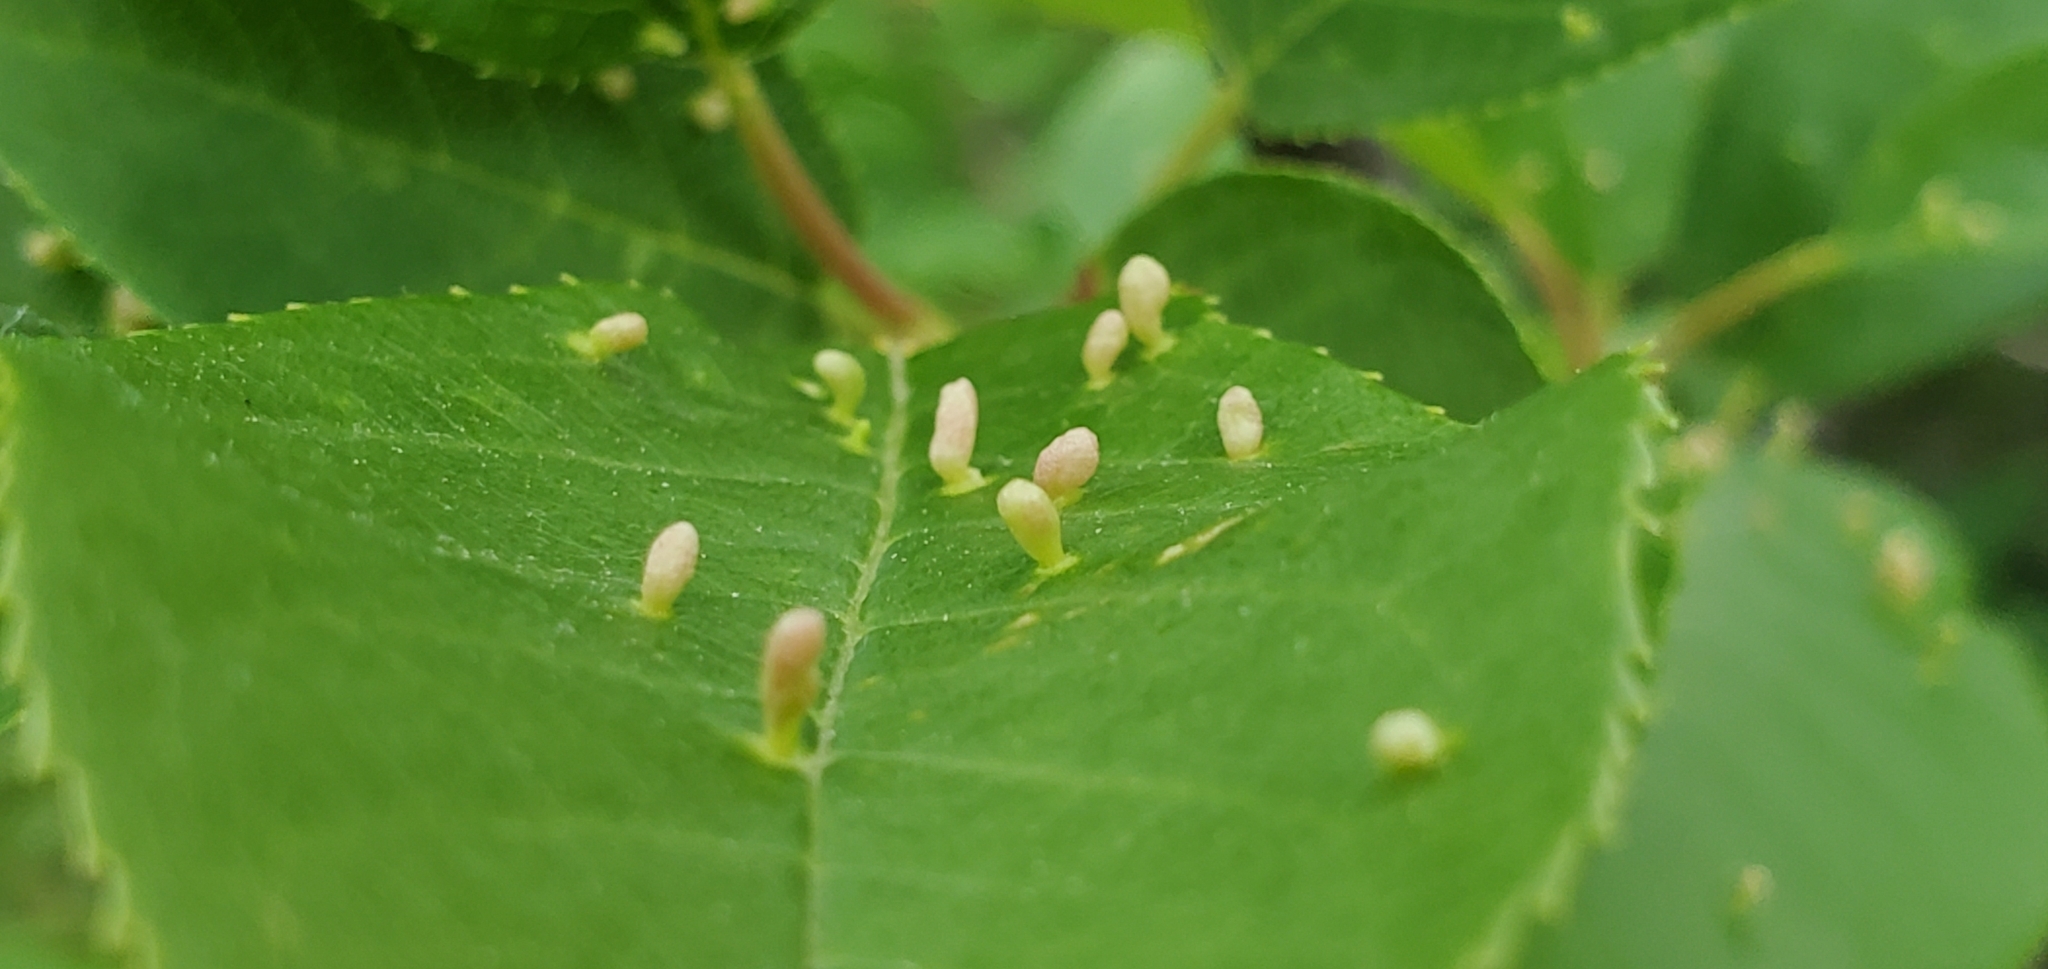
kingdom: Animalia
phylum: Arthropoda
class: Arachnida
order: Trombidiformes
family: Eriophyidae
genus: Eriophyes
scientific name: Eriophyes emarginatae
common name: Plum leaf gall mite
